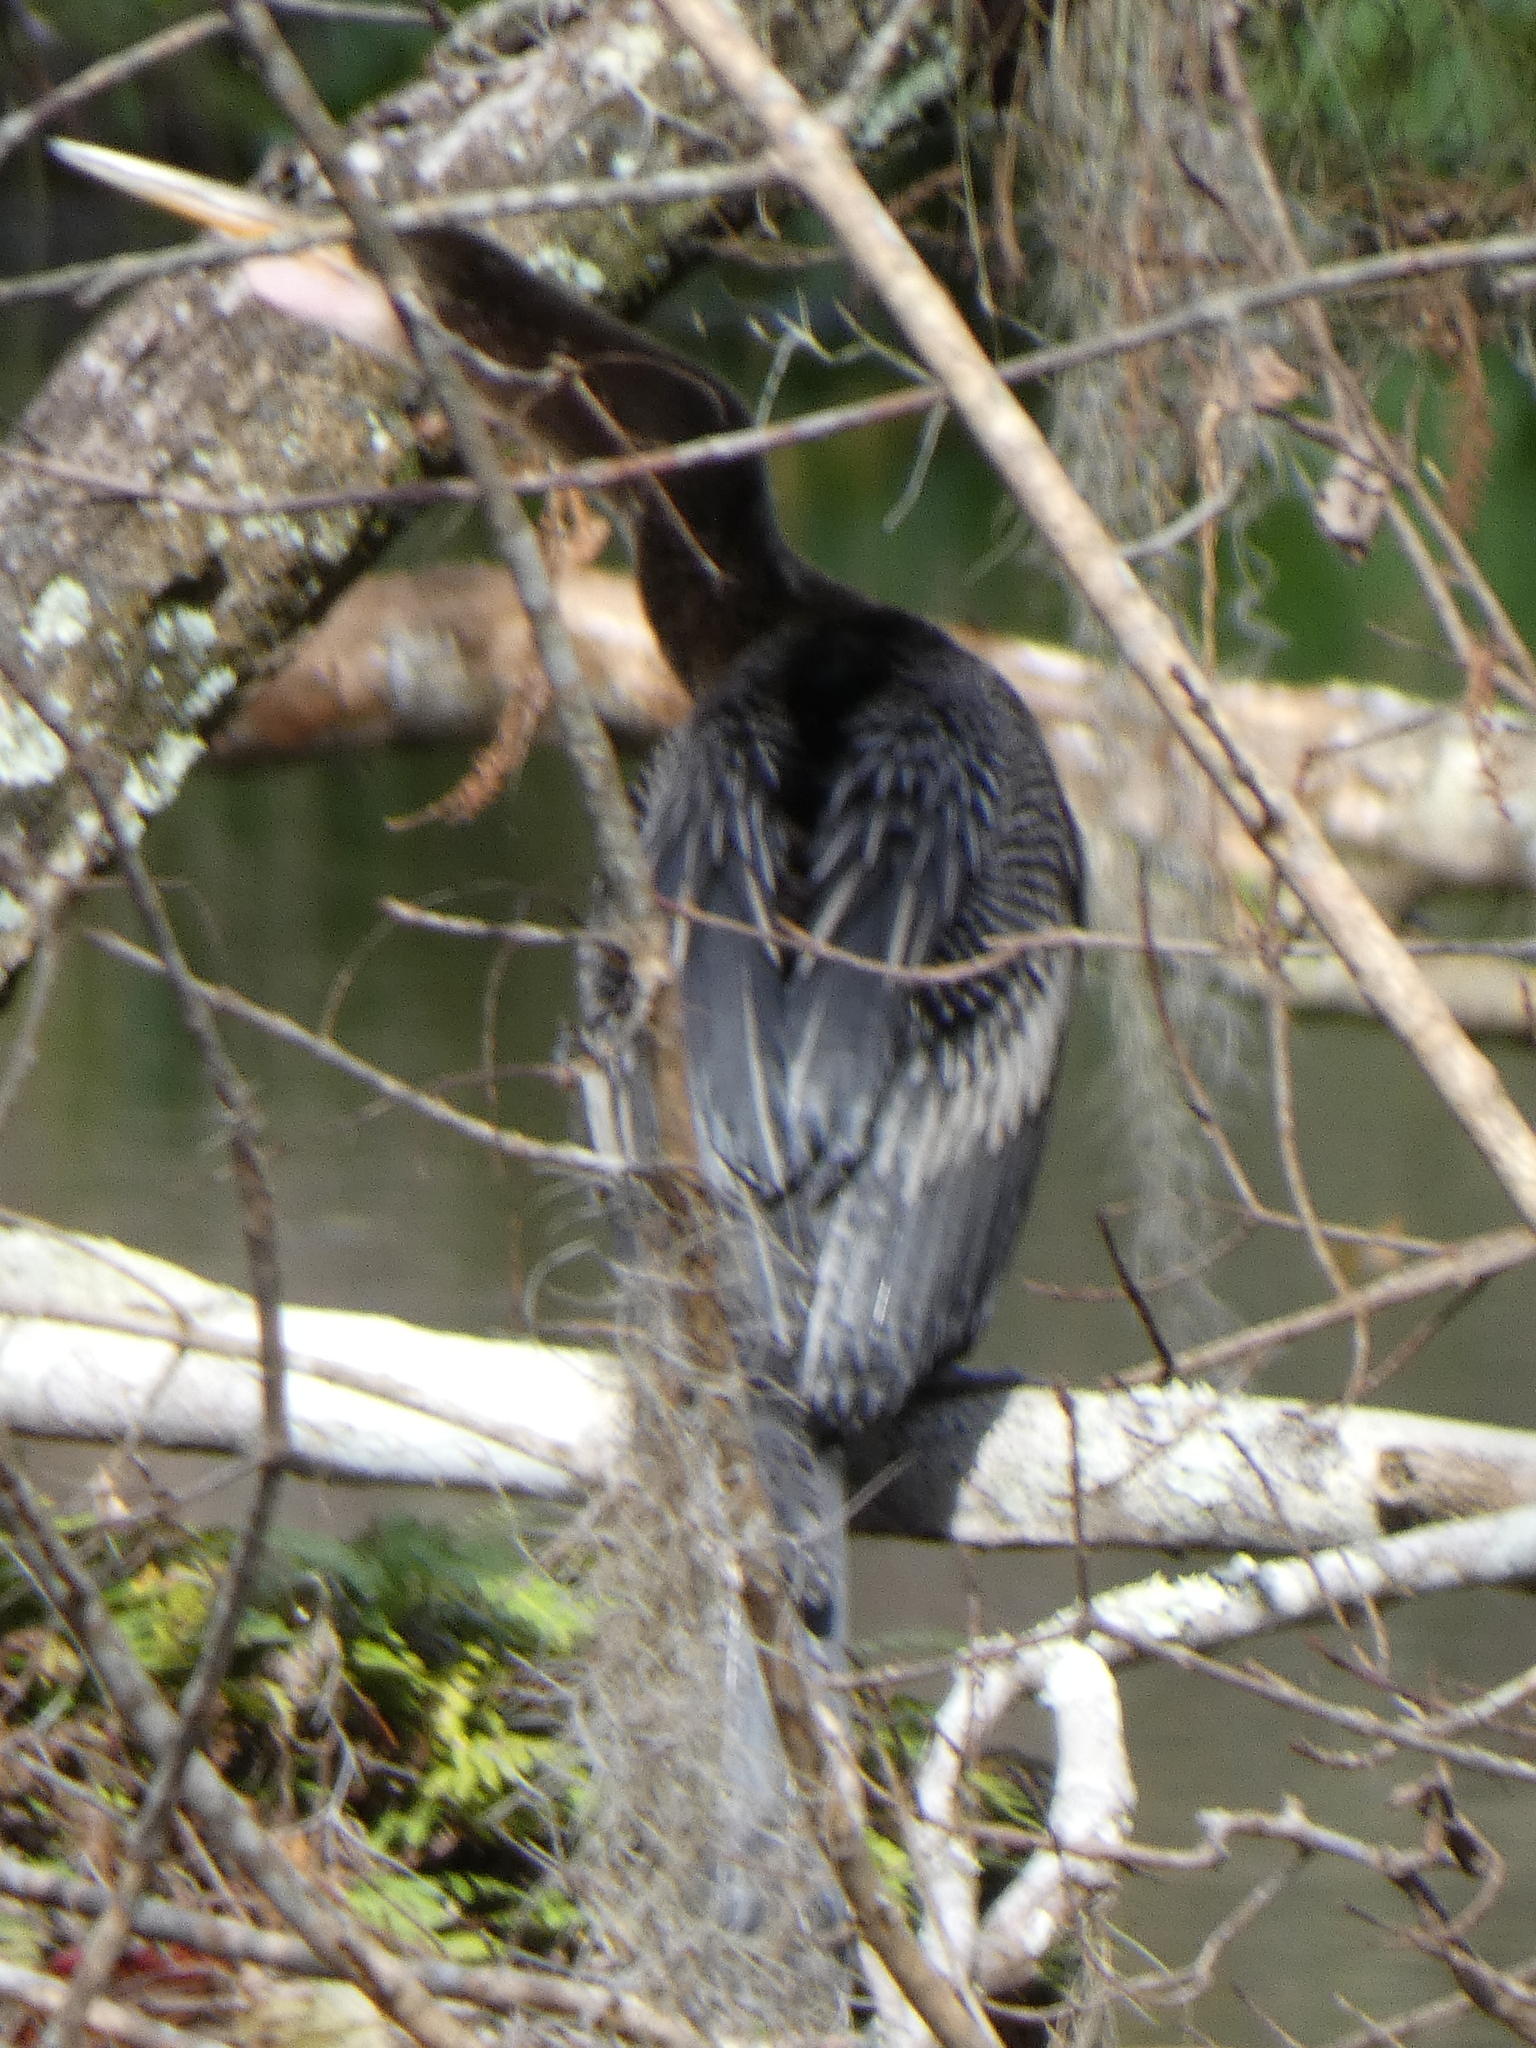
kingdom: Animalia
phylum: Chordata
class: Aves
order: Suliformes
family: Anhingidae
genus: Anhinga
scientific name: Anhinga anhinga
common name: Anhinga
